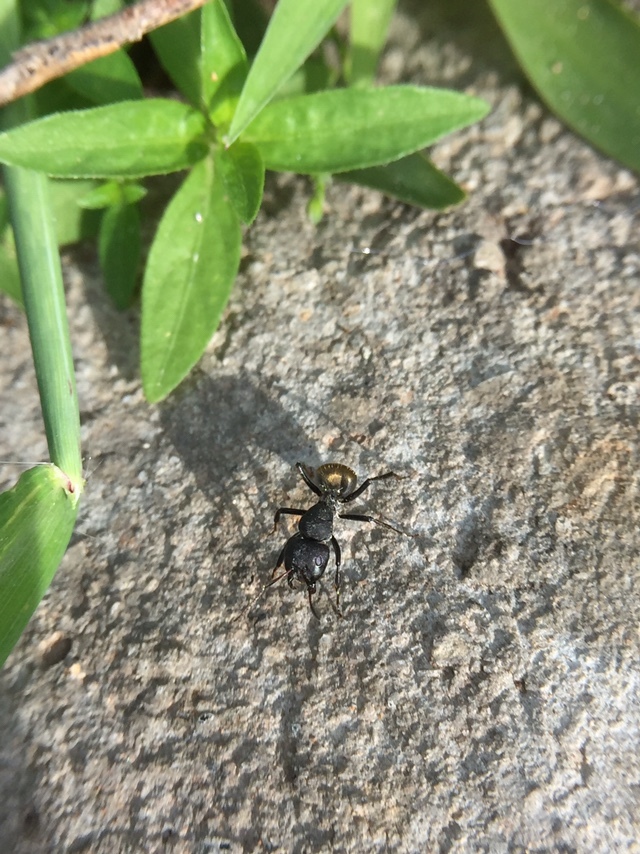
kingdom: Animalia
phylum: Arthropoda
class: Insecta
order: Hymenoptera
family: Formicidae
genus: Camponotus
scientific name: Camponotus sericeus
